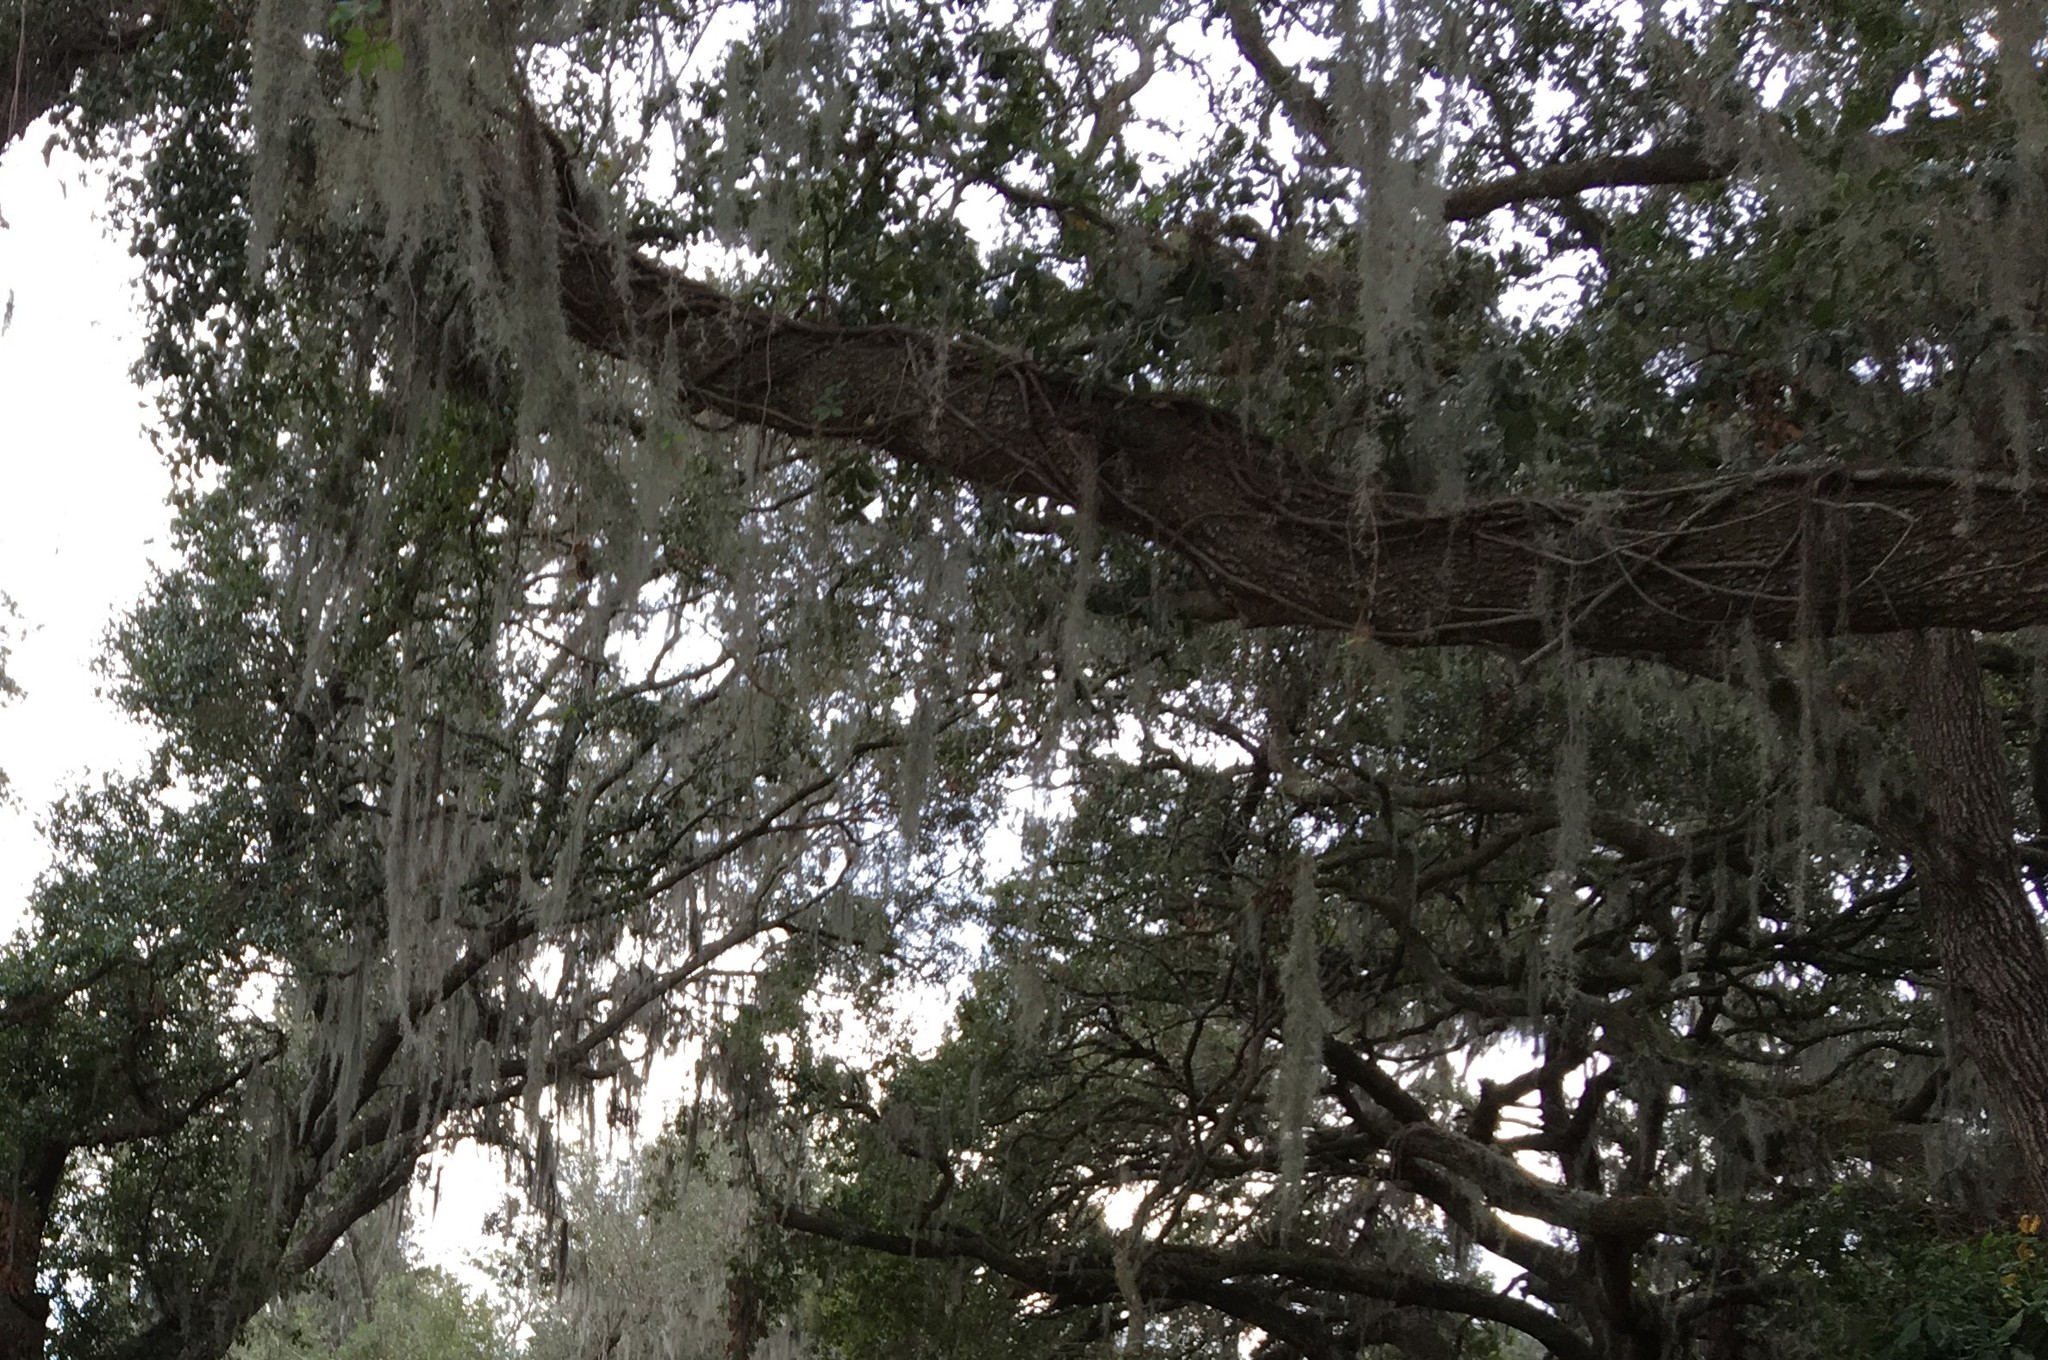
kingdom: Plantae
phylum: Tracheophyta
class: Liliopsida
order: Poales
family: Bromeliaceae
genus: Tillandsia
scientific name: Tillandsia usneoides
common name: Spanish moss
